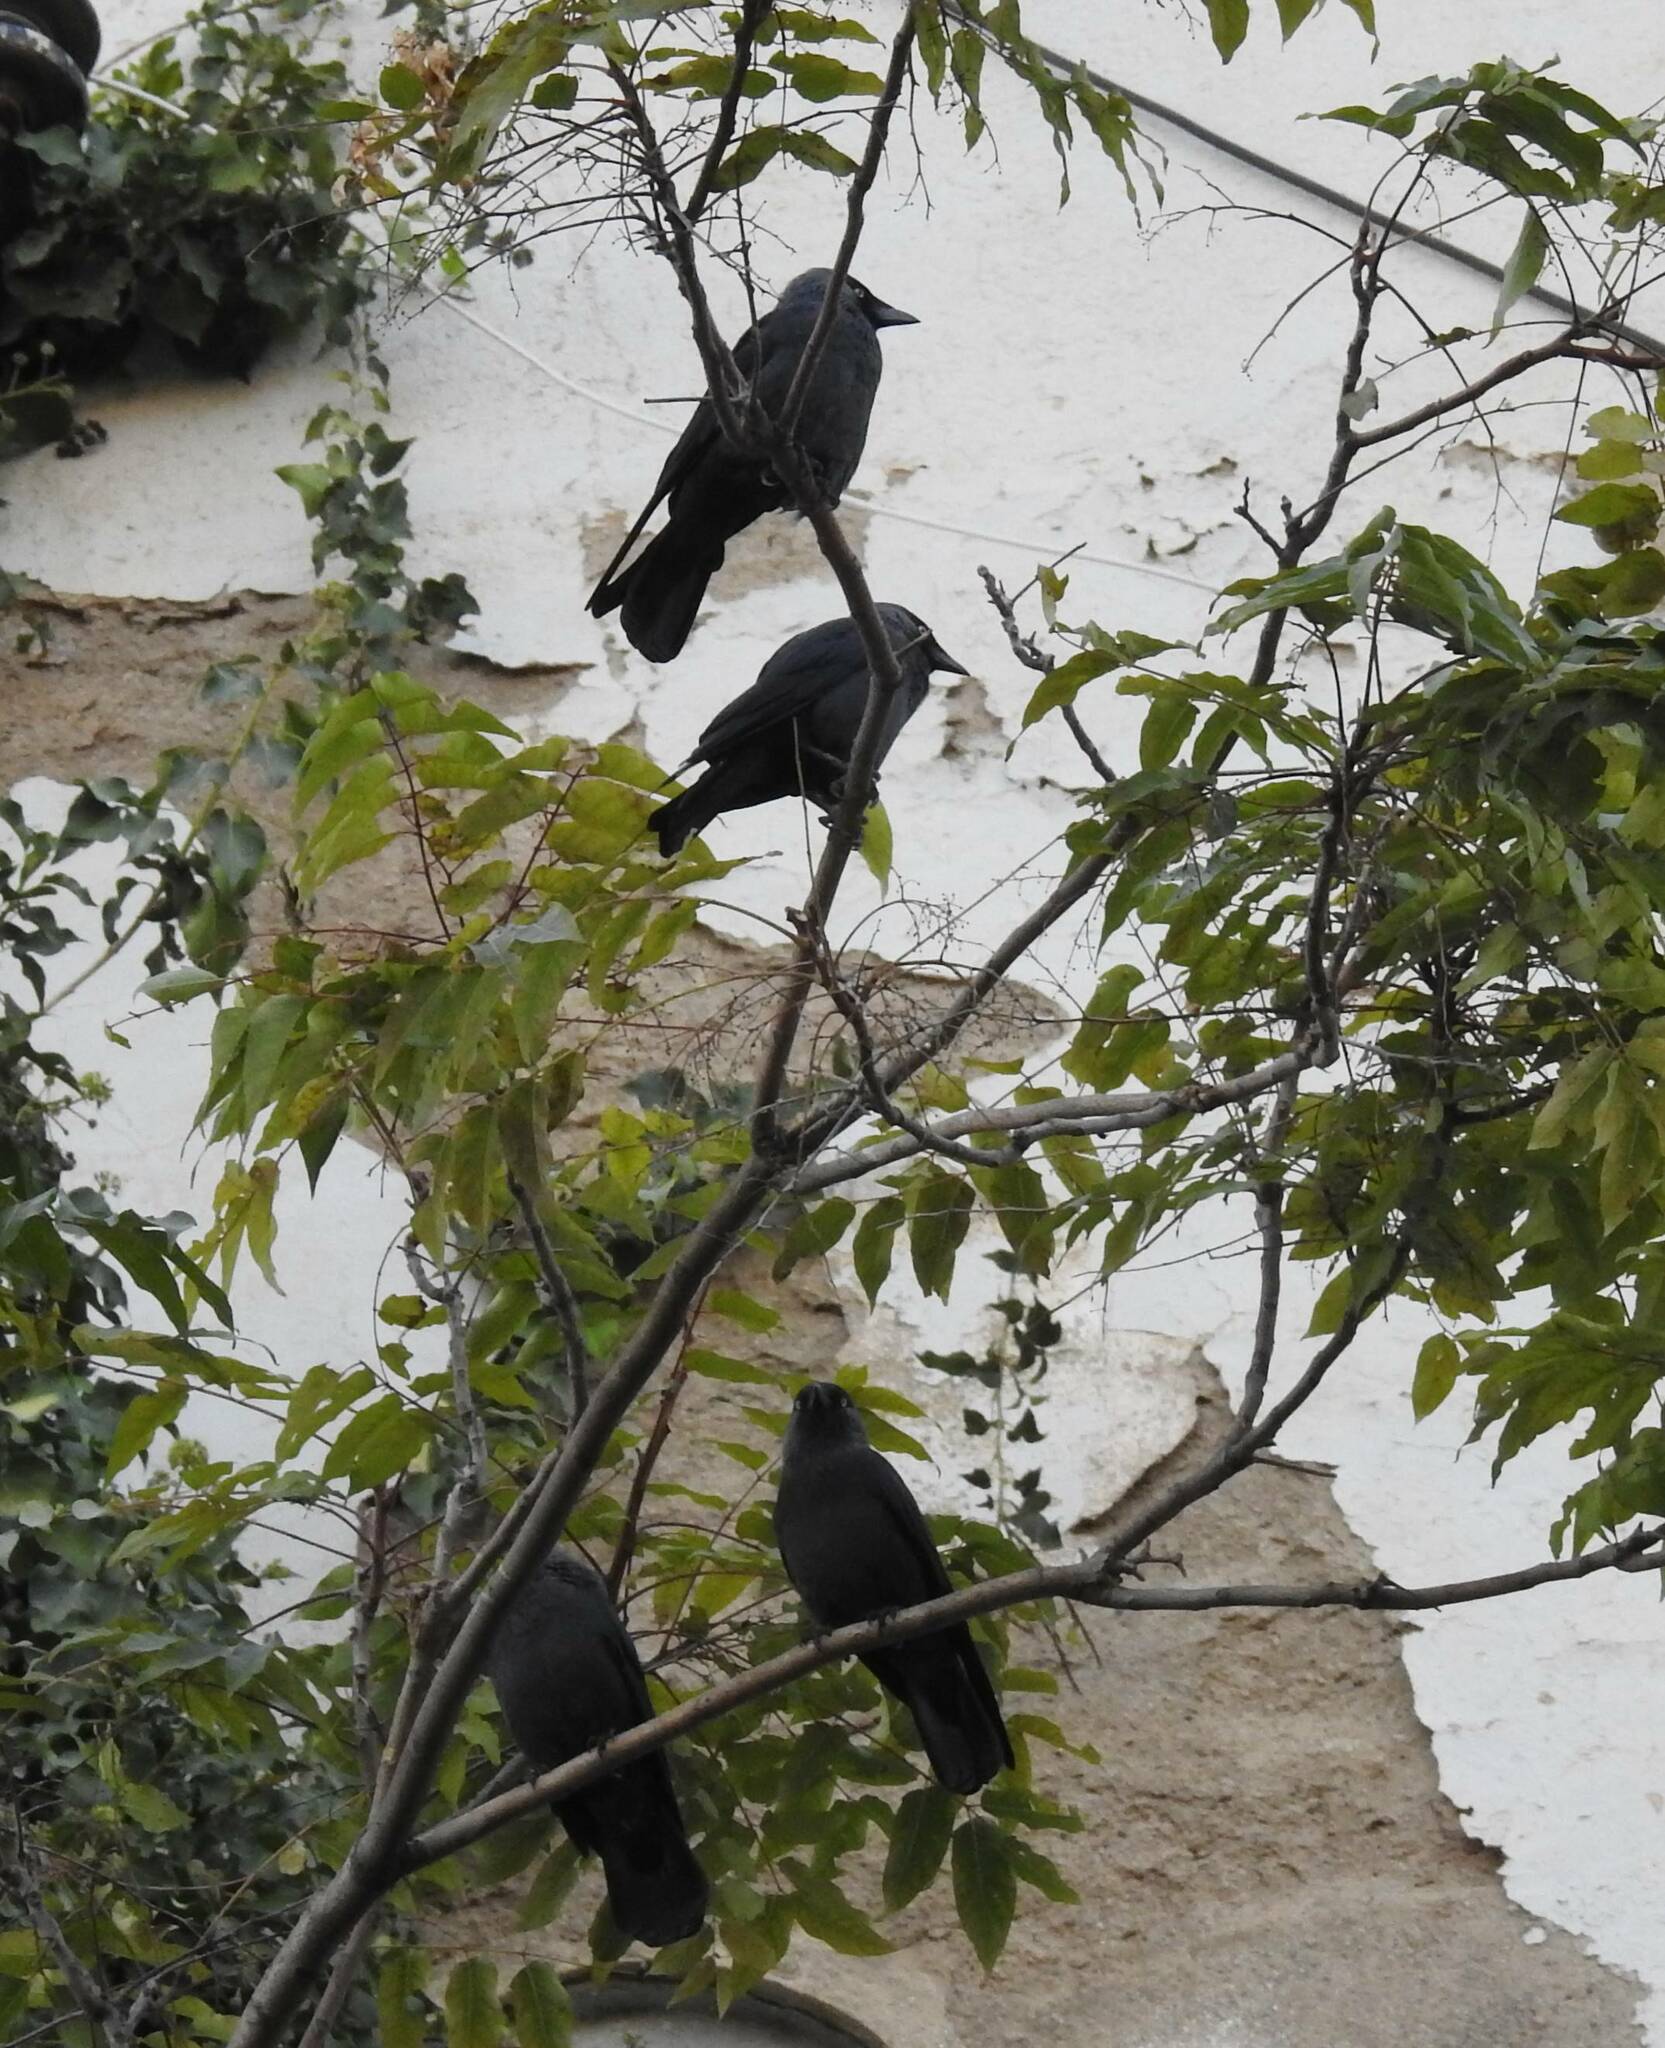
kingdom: Animalia
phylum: Chordata
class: Aves
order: Passeriformes
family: Corvidae
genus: Coloeus
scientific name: Coloeus monedula
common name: Western jackdaw
